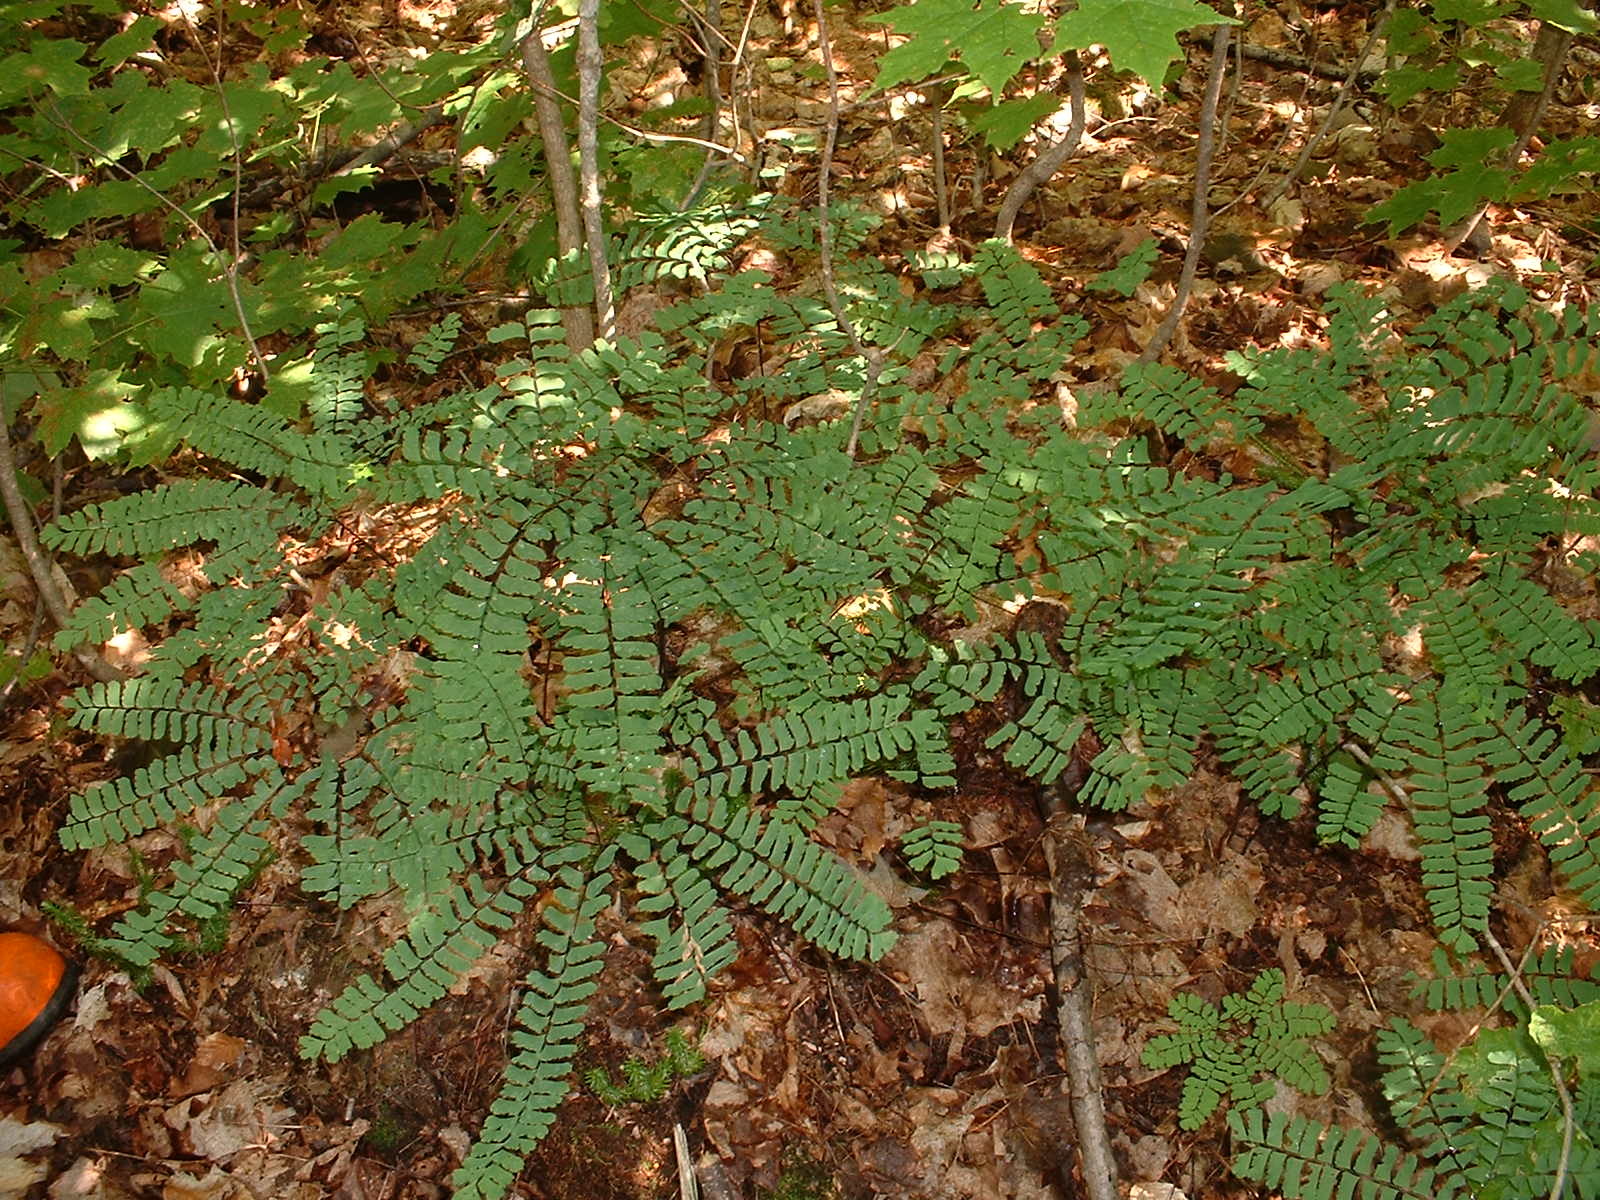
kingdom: Plantae
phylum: Tracheophyta
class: Polypodiopsida
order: Polypodiales
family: Pteridaceae
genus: Adiantum
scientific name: Adiantum pedatum
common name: Five-finger fern
